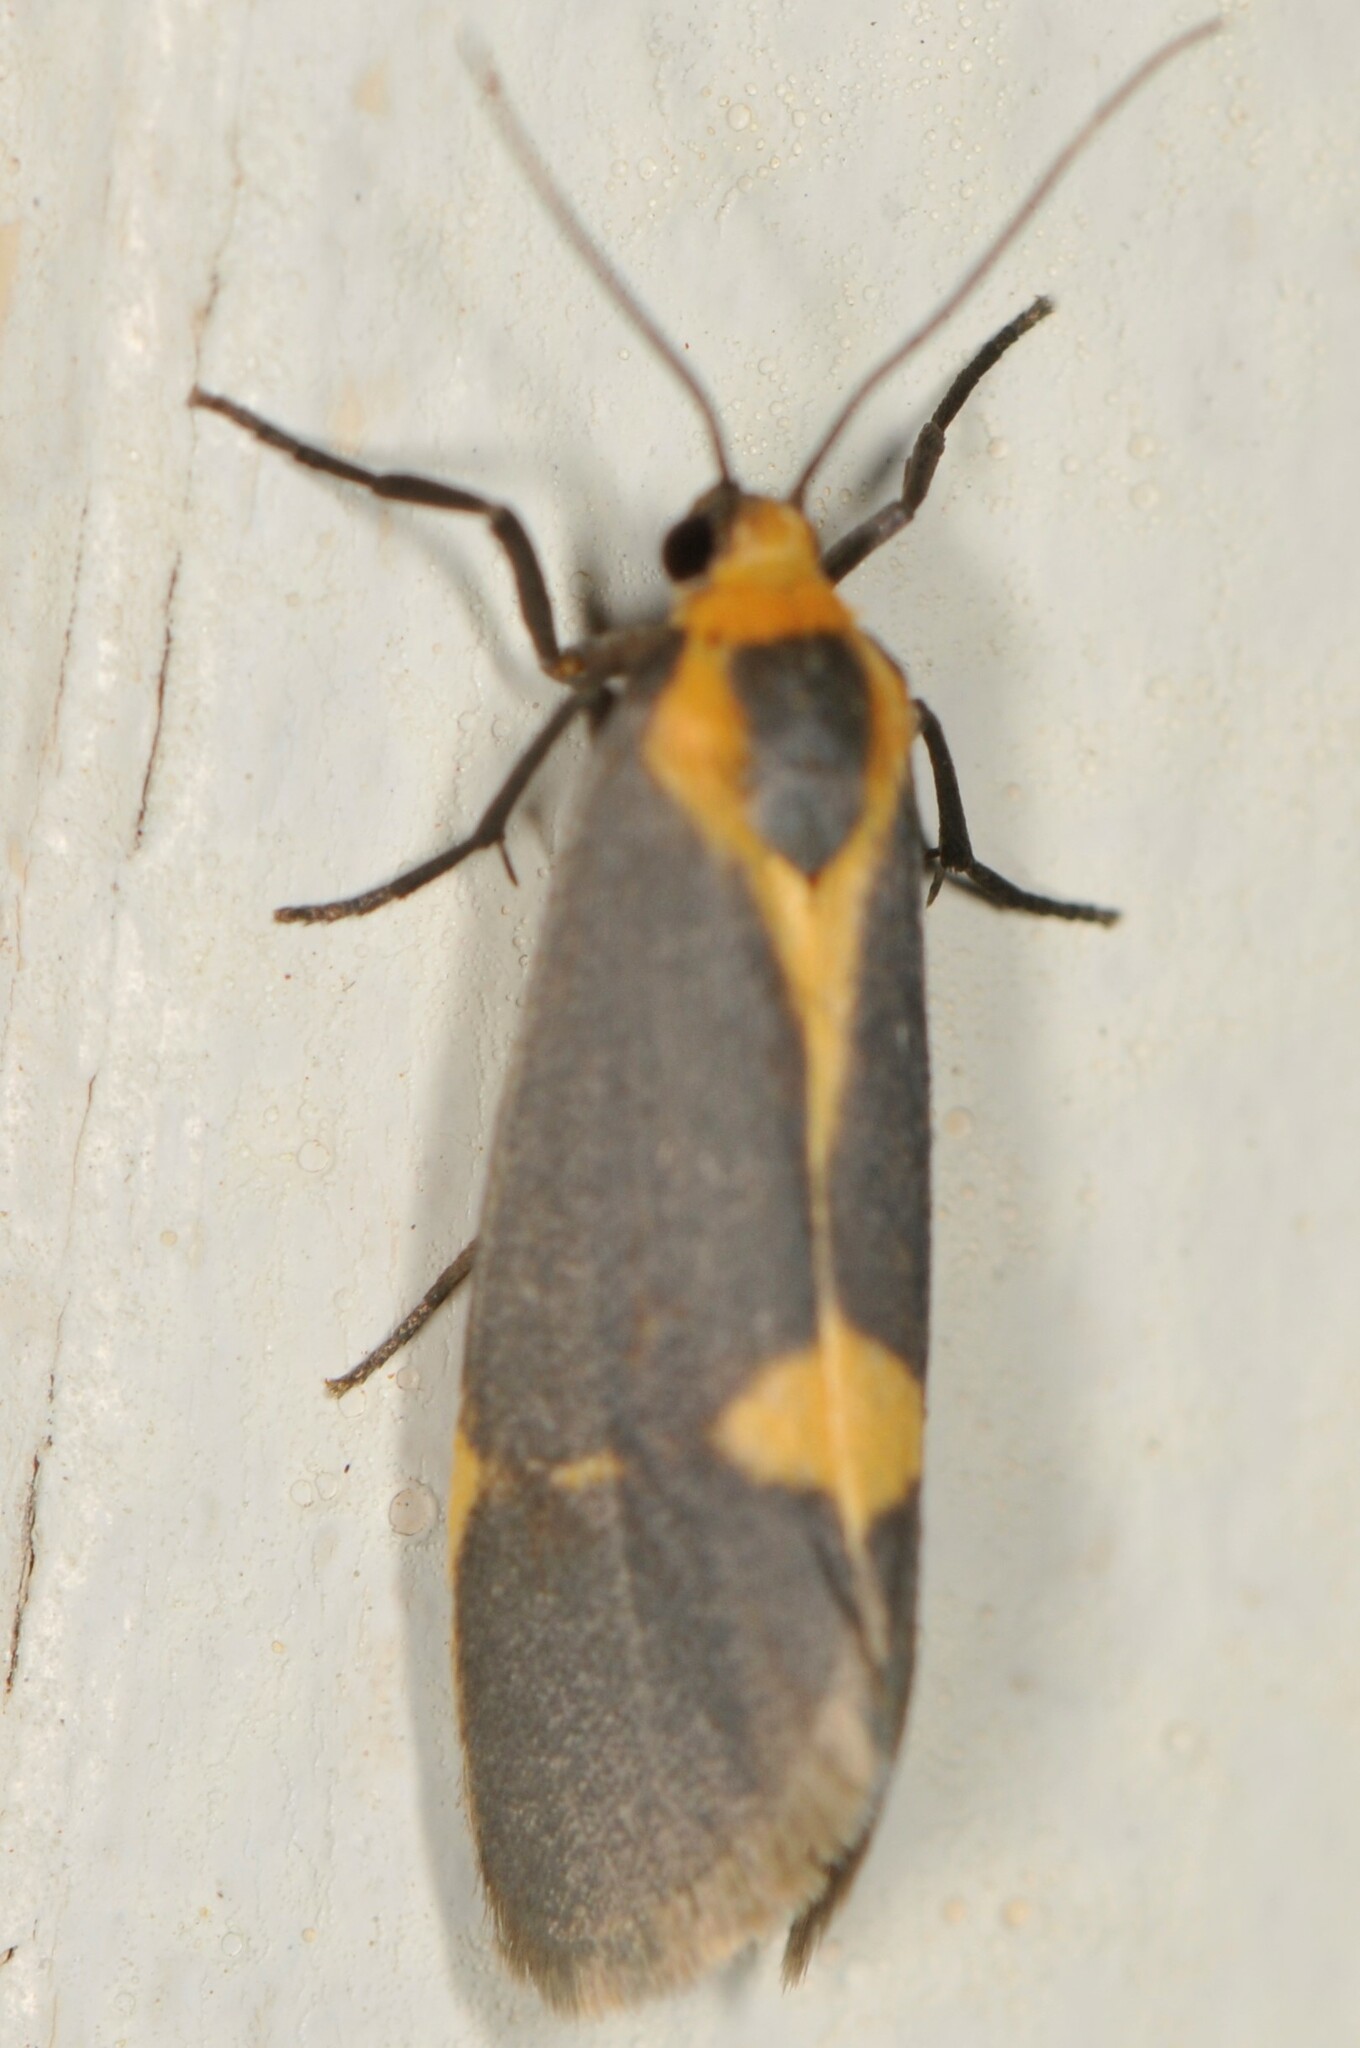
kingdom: Animalia
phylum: Arthropoda
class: Insecta
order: Lepidoptera
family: Erebidae
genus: Cisthene
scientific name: Cisthene tenuifascia
